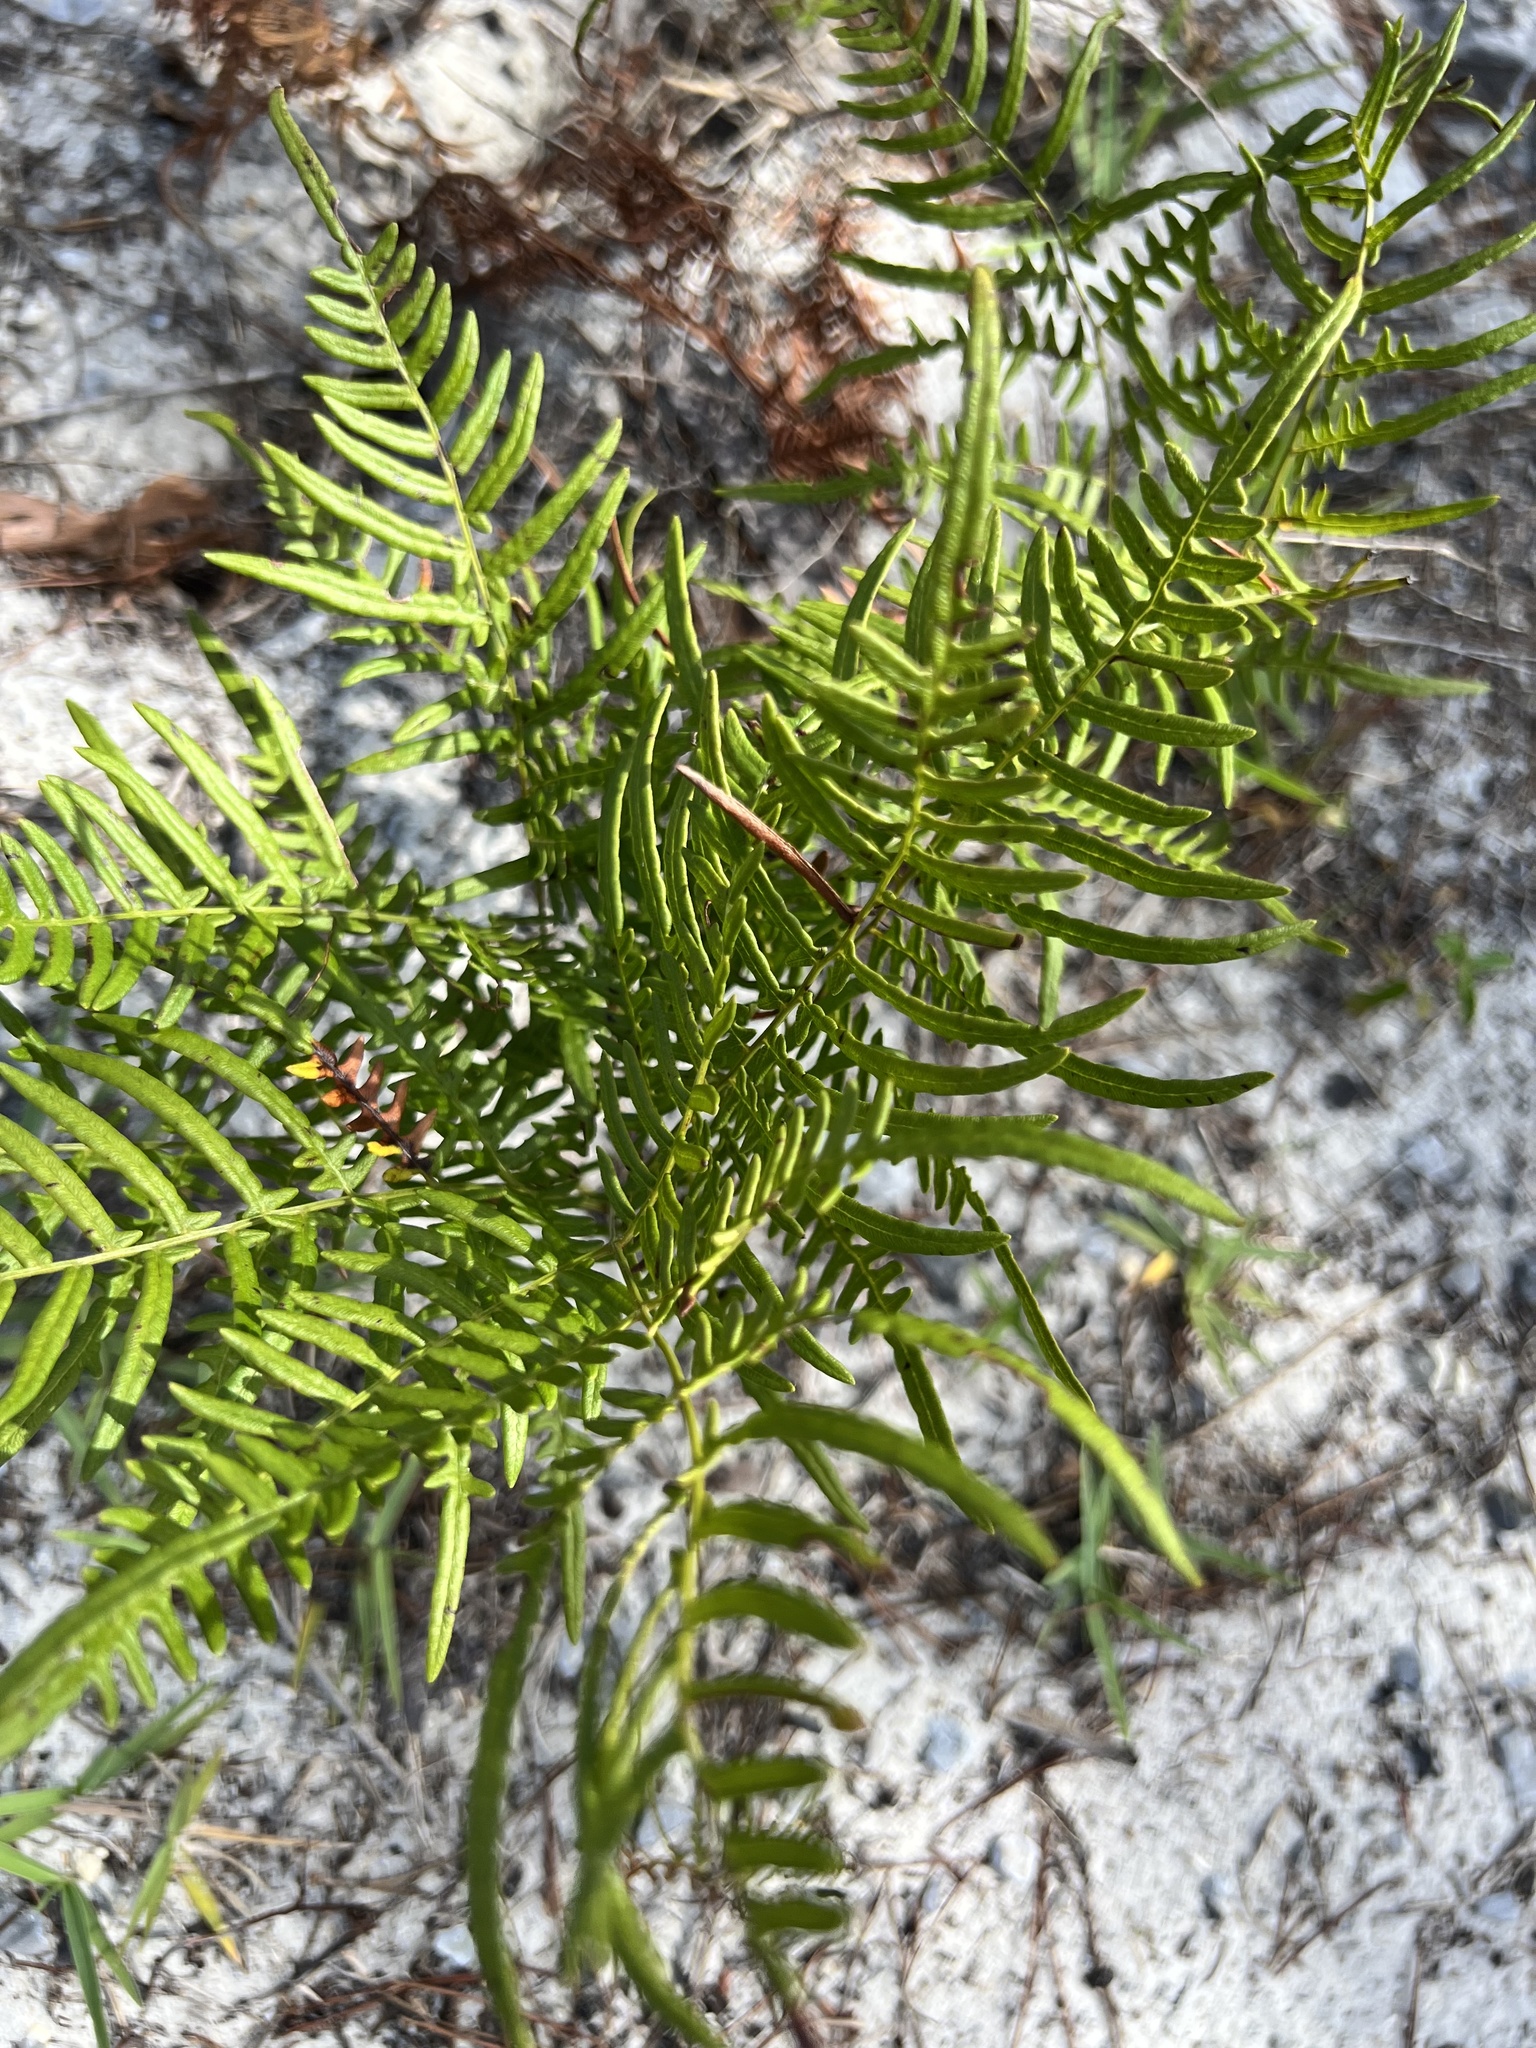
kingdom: Plantae
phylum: Tracheophyta
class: Polypodiopsida
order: Polypodiales
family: Dennstaedtiaceae
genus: Pteridium
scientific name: Pteridium
